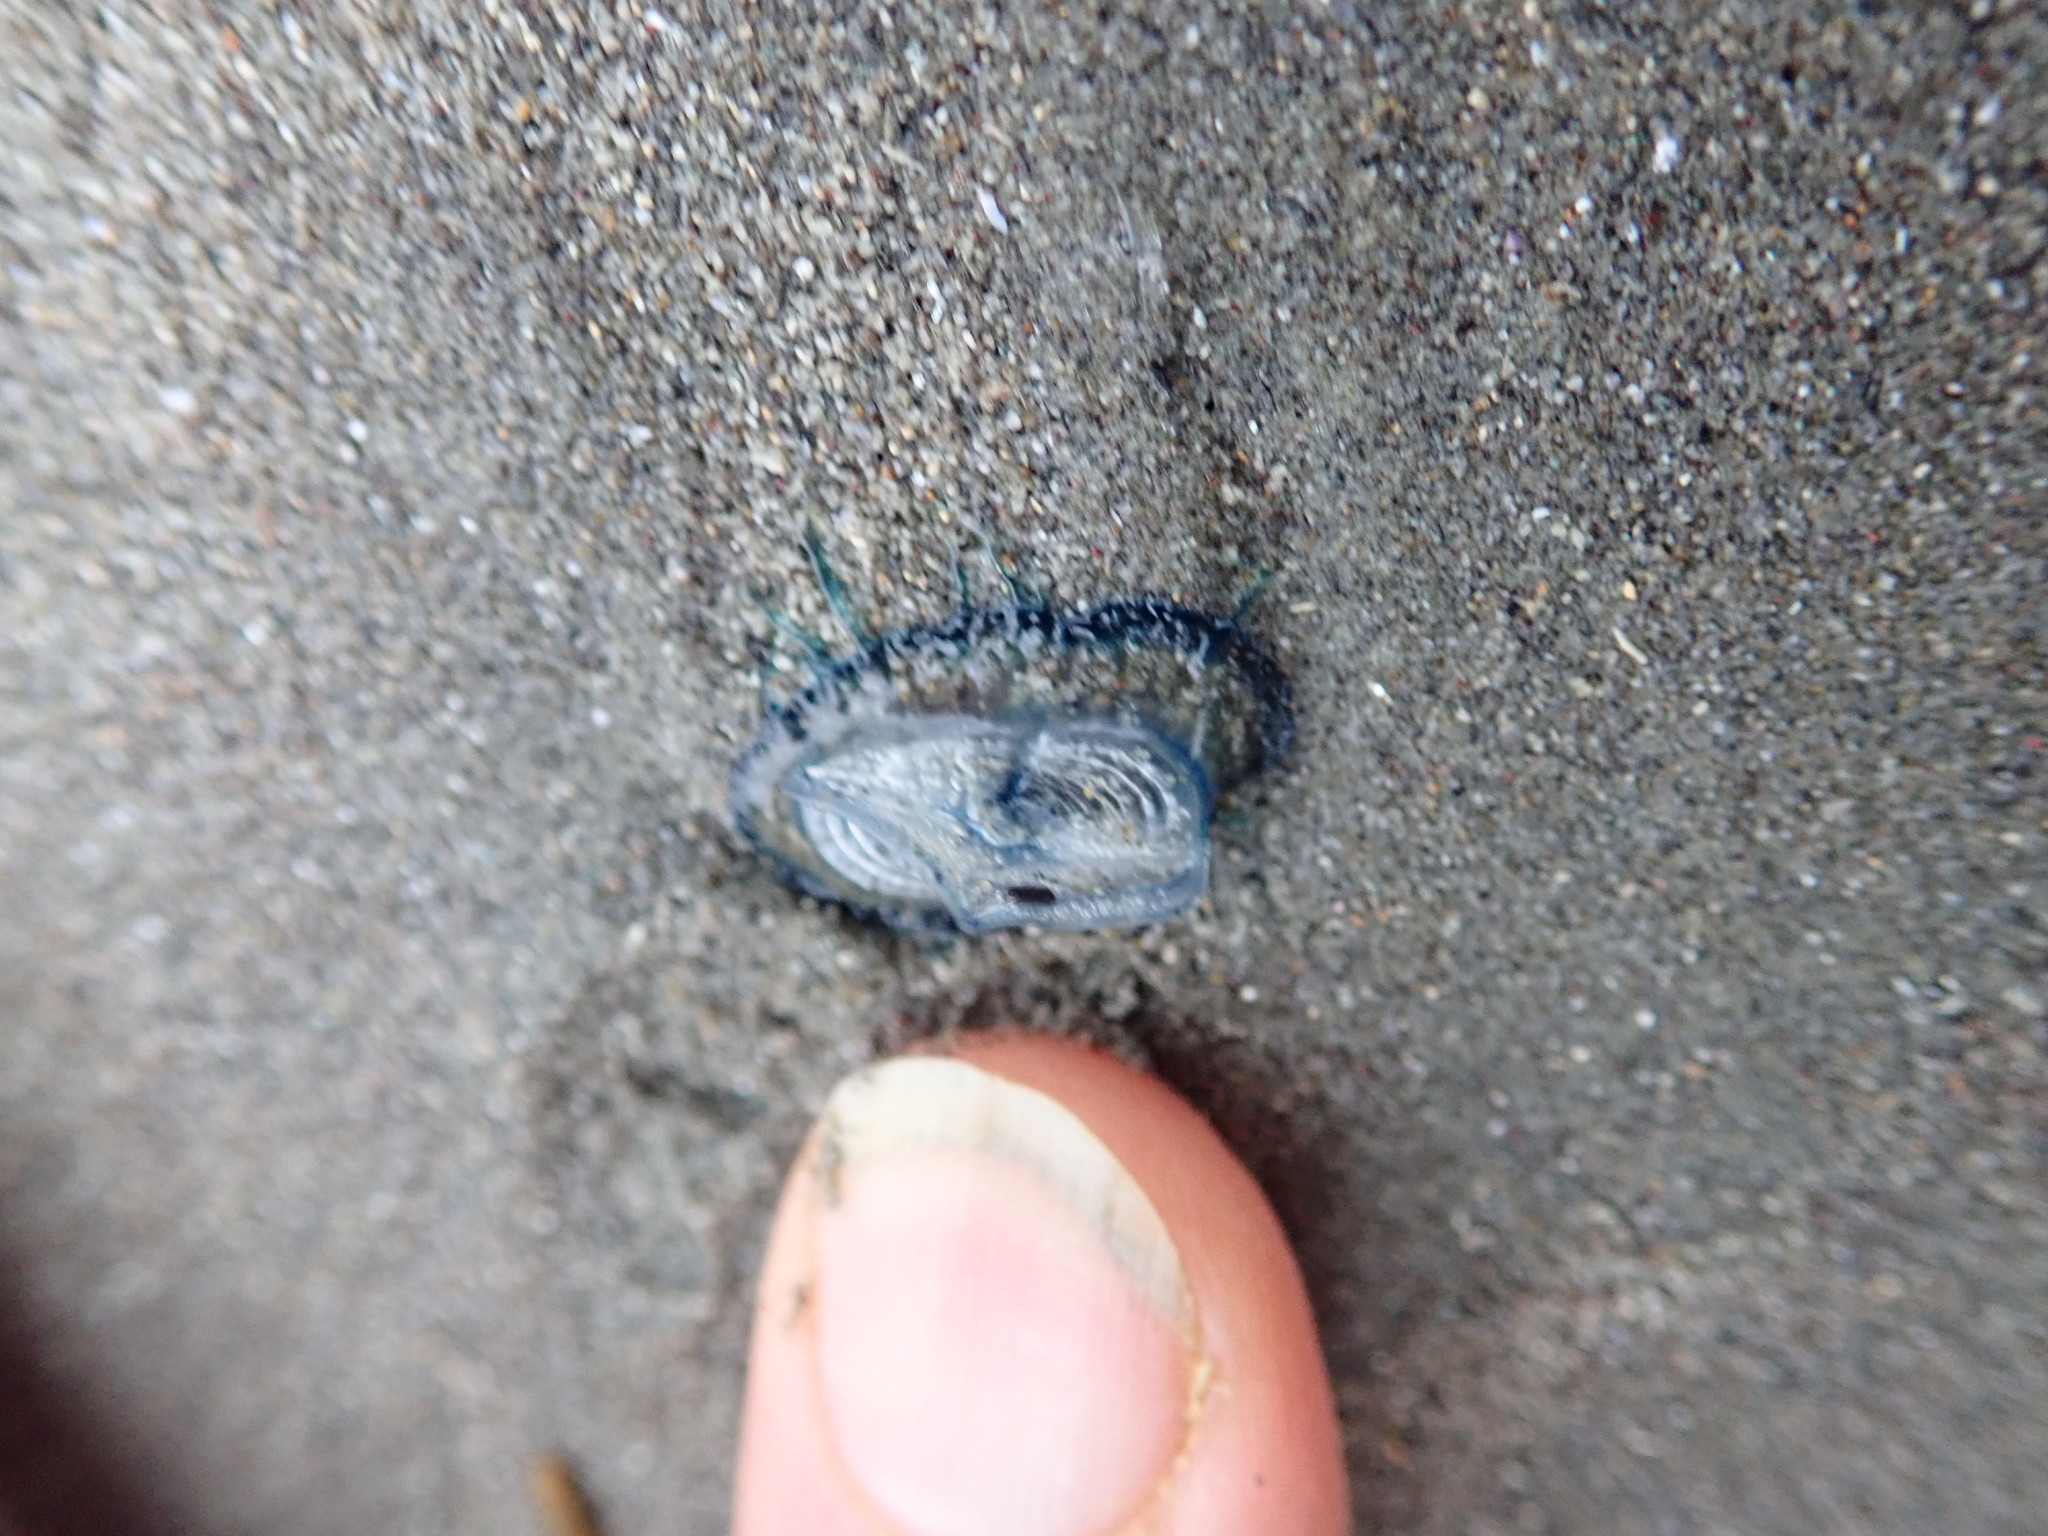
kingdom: Animalia
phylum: Cnidaria
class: Hydrozoa
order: Anthoathecata
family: Porpitidae
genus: Velella
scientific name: Velella velella
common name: By-the-wind-sailor
